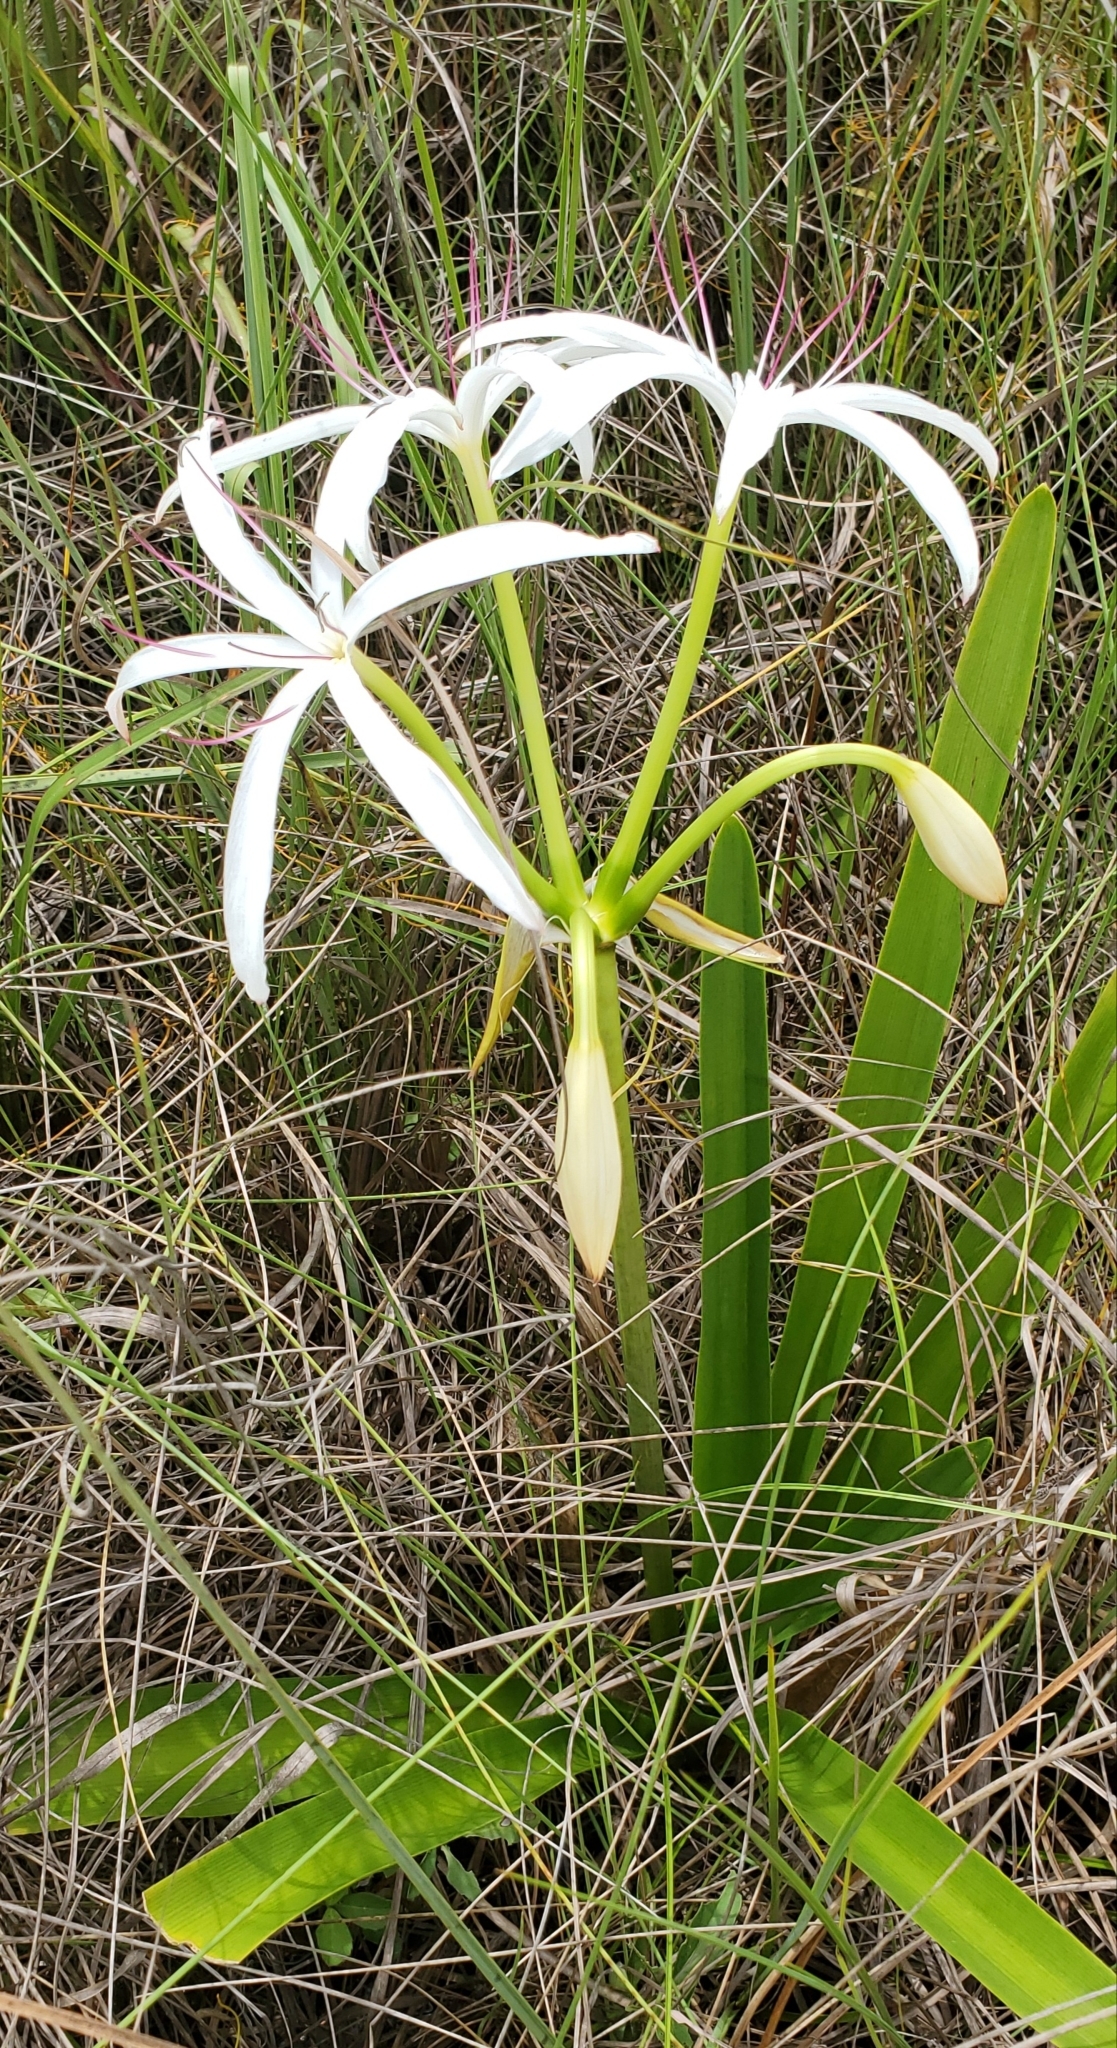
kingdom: Plantae
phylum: Tracheophyta
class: Liliopsida
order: Asparagales
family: Amaryllidaceae
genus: Crinum
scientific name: Crinum americanum
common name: Florida swamp-lily
